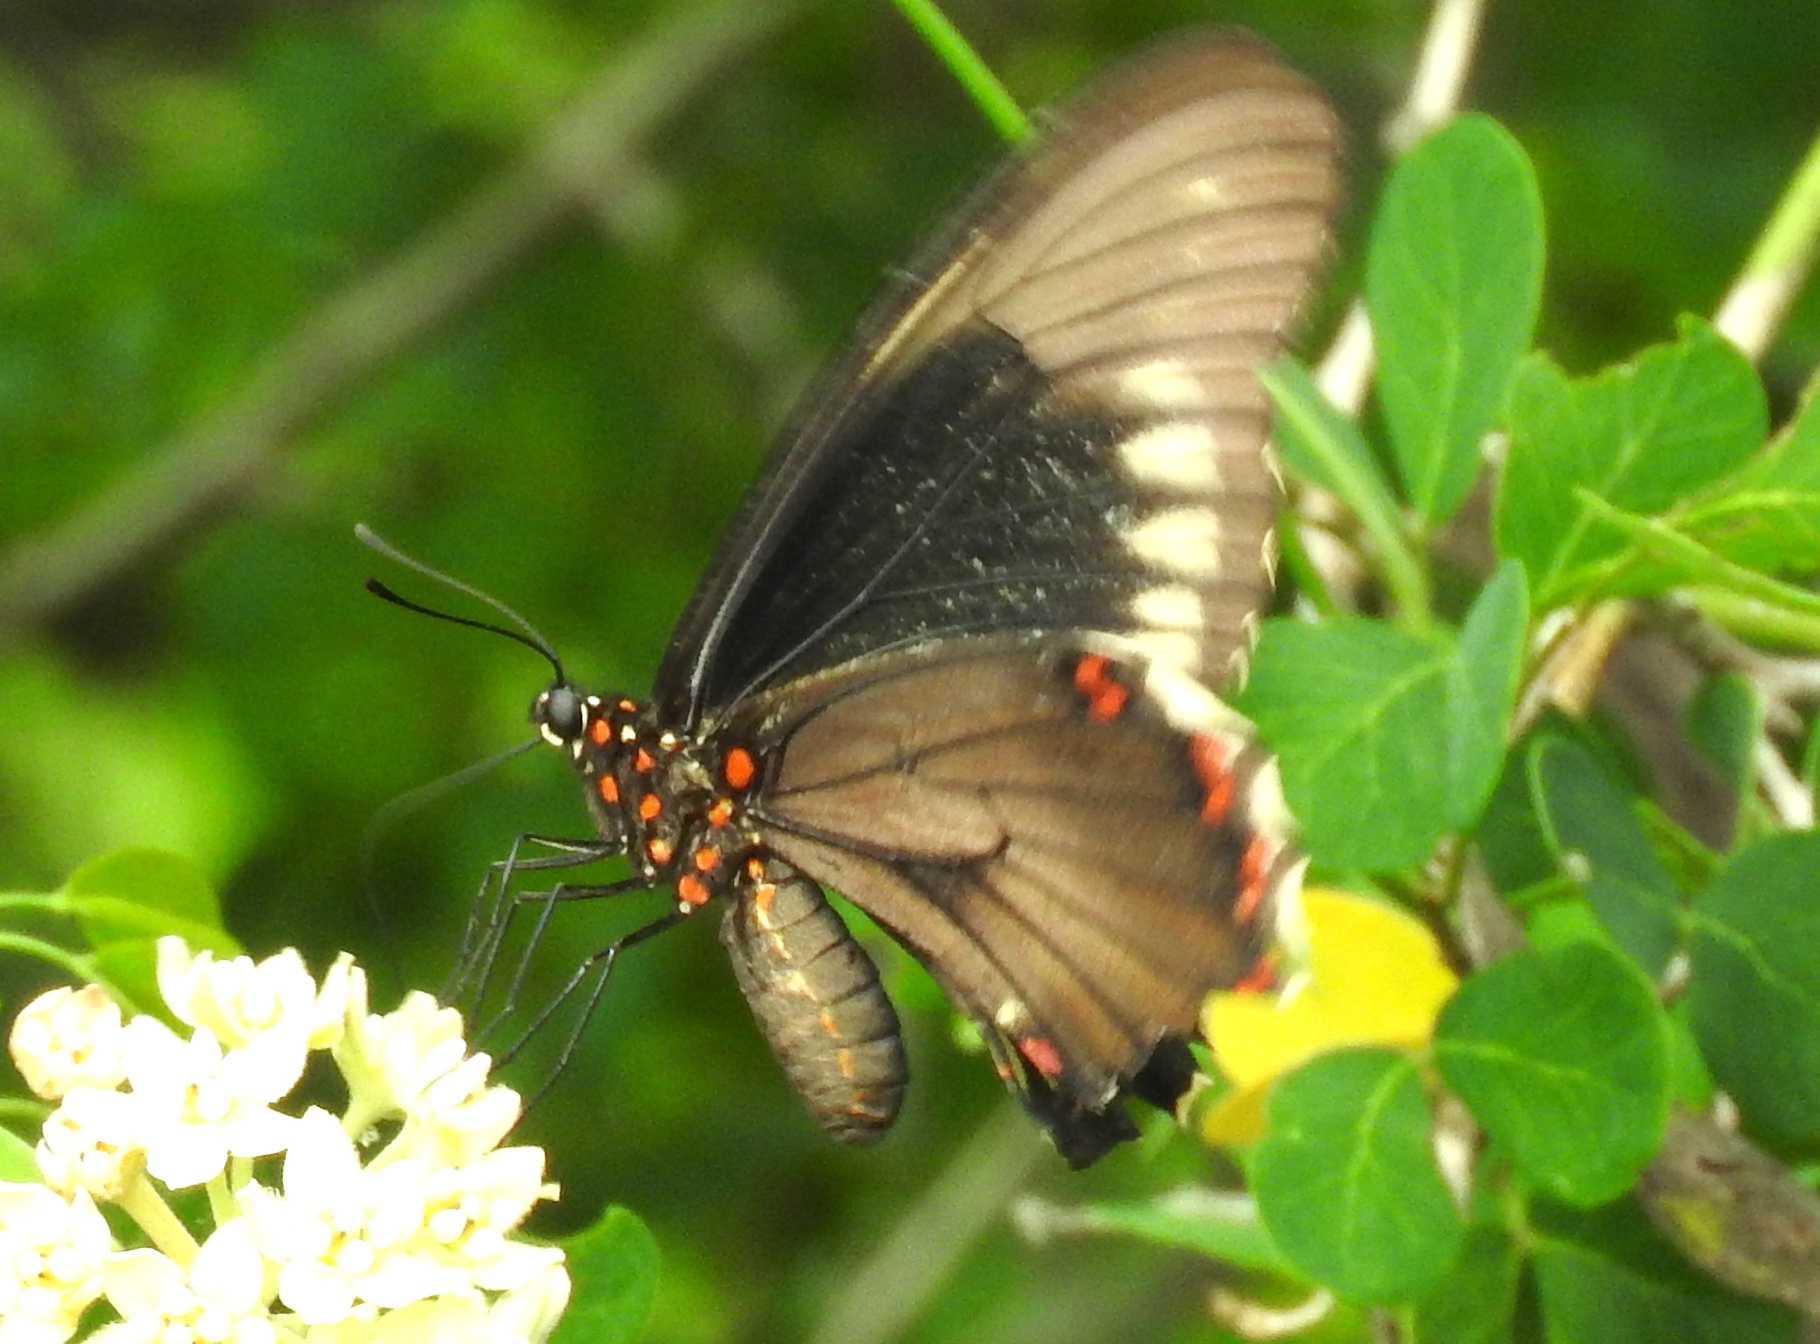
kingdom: Animalia
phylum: Arthropoda
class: Insecta
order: Lepidoptera
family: Papilionidae
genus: Battus
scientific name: Battus polydamas
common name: Polydamas swallowtail
